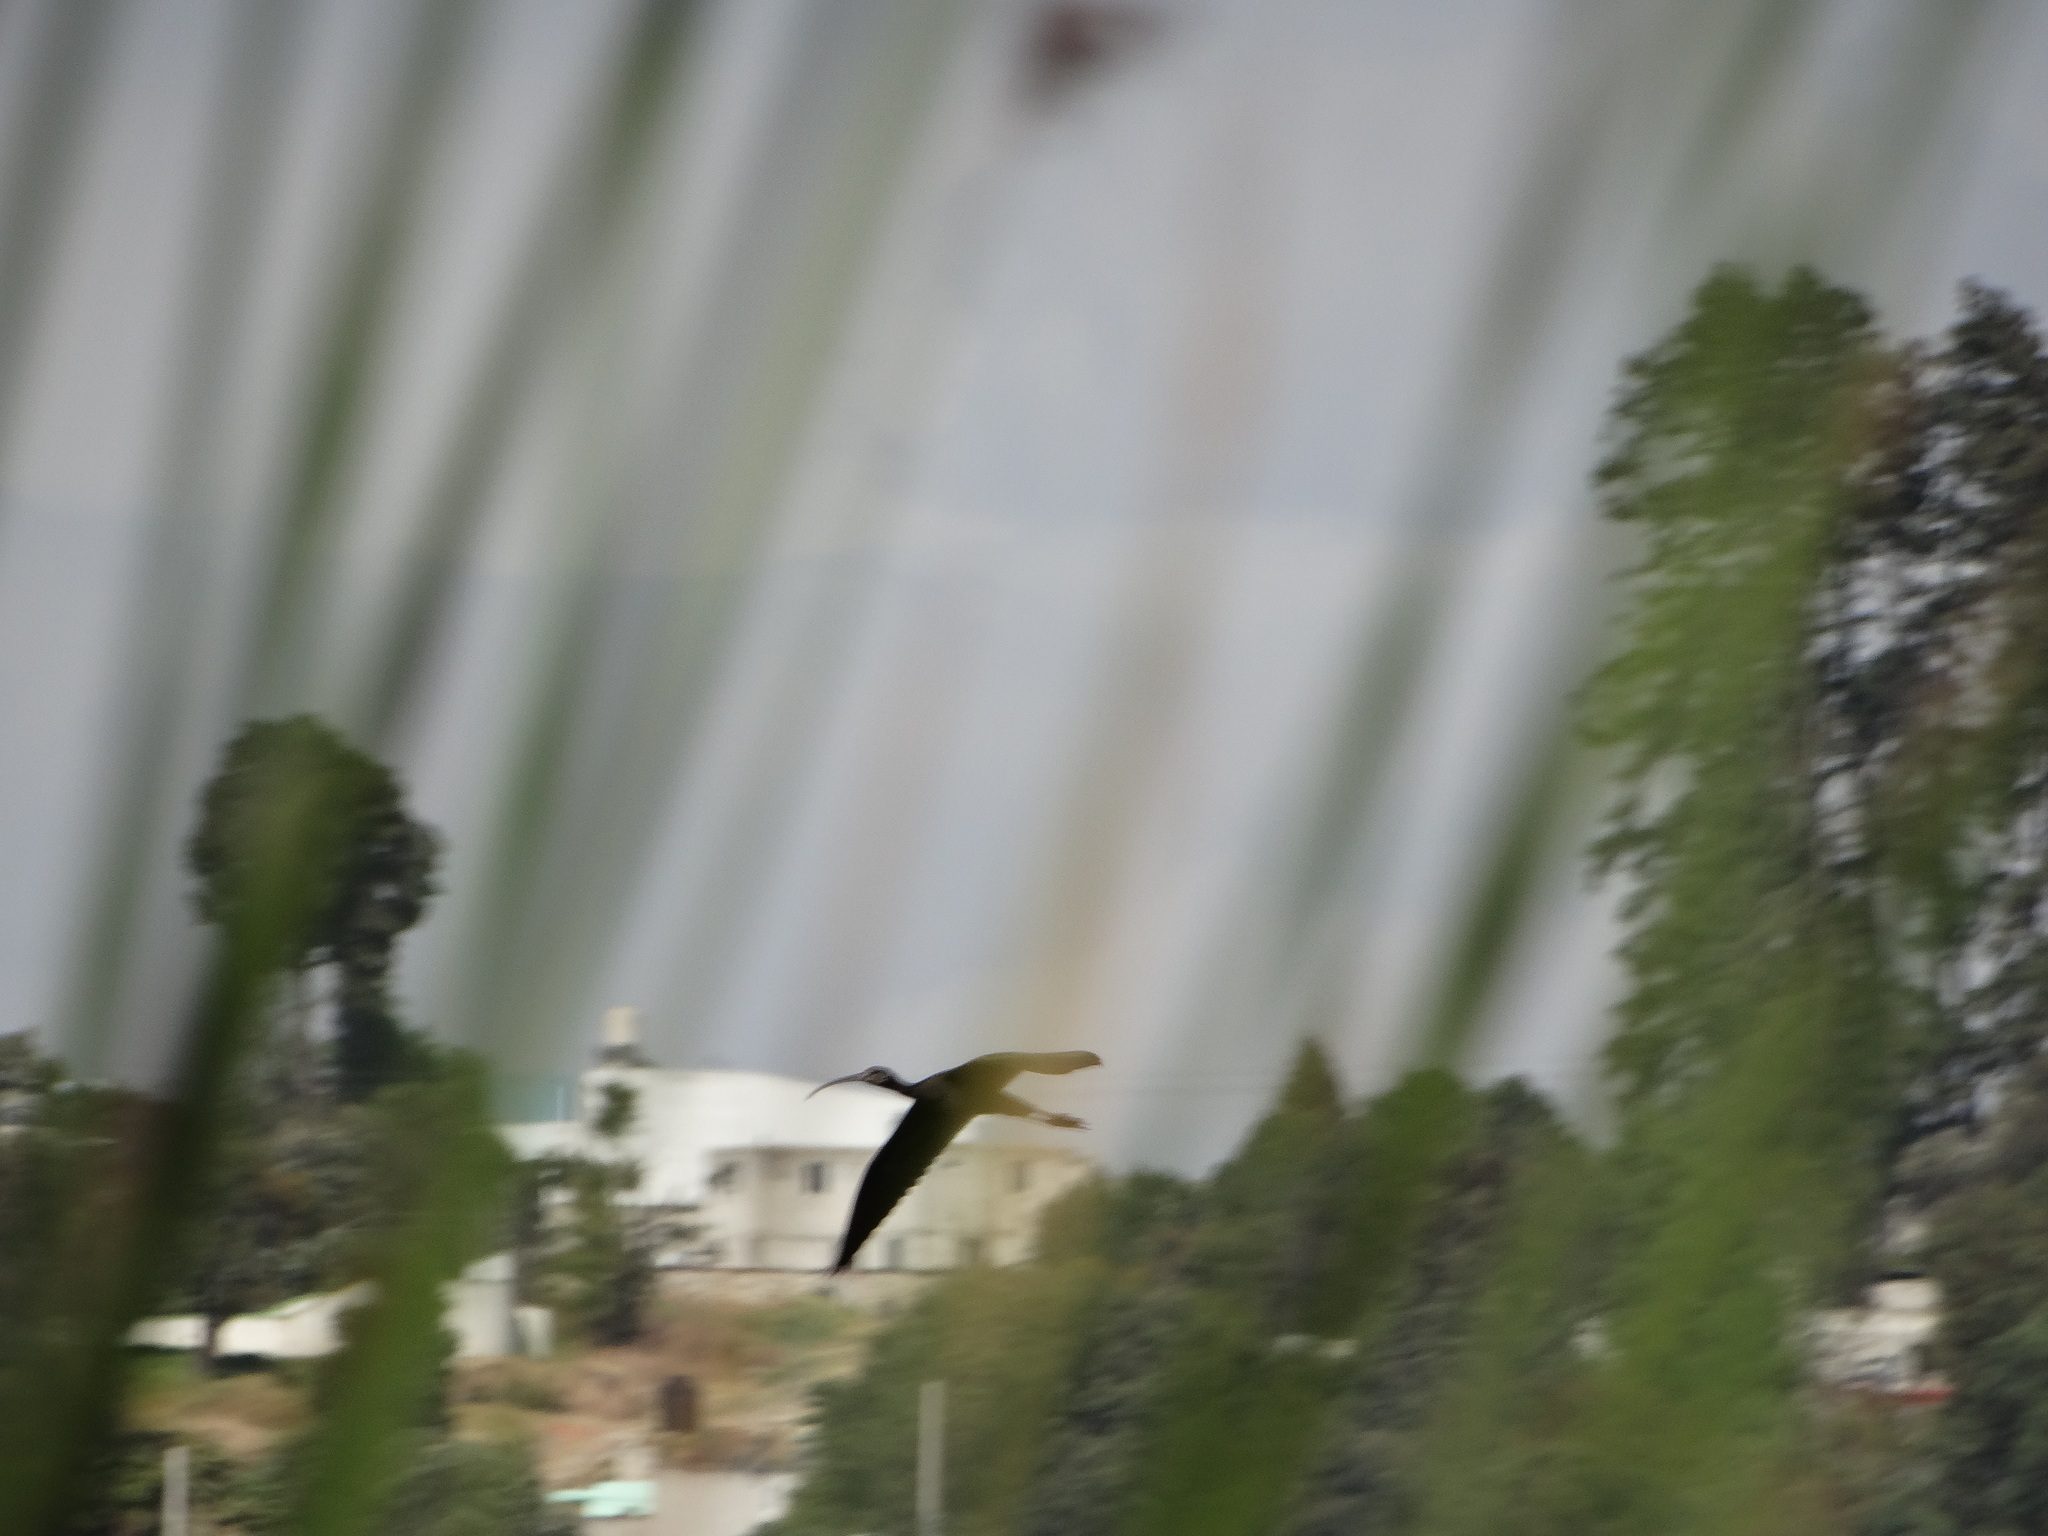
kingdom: Animalia
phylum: Chordata
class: Aves
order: Pelecaniformes
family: Threskiornithidae
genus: Plegadis
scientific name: Plegadis chihi
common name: White-faced ibis
